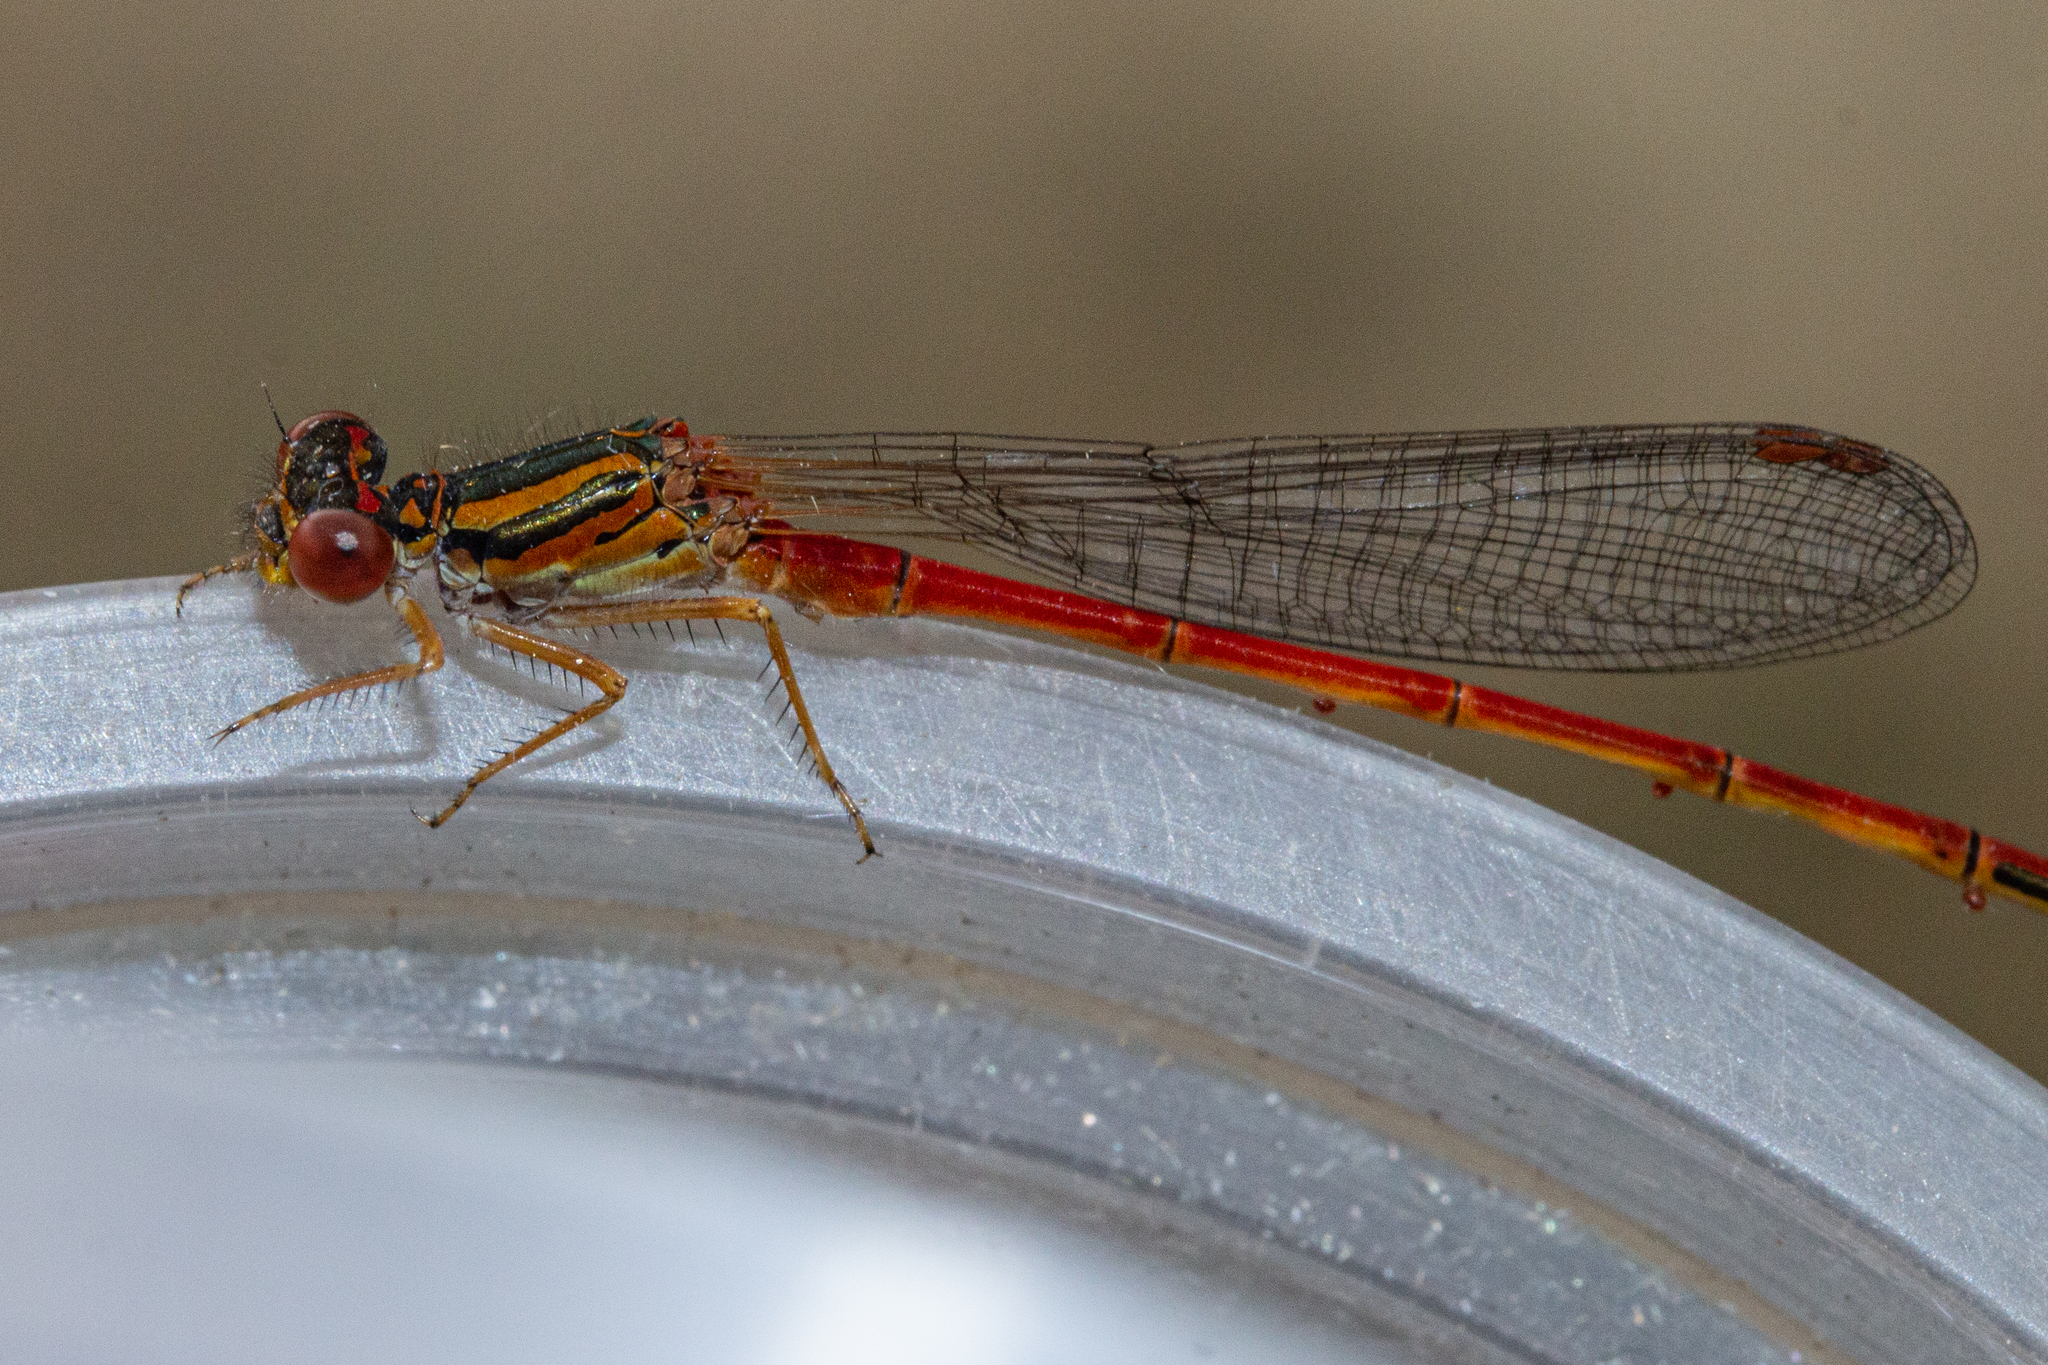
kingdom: Animalia
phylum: Arthropoda
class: Insecta
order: Odonata
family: Coenagrionidae
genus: Xanthocnemis
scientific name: Xanthocnemis zealandica
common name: Common redcoat damselfly
